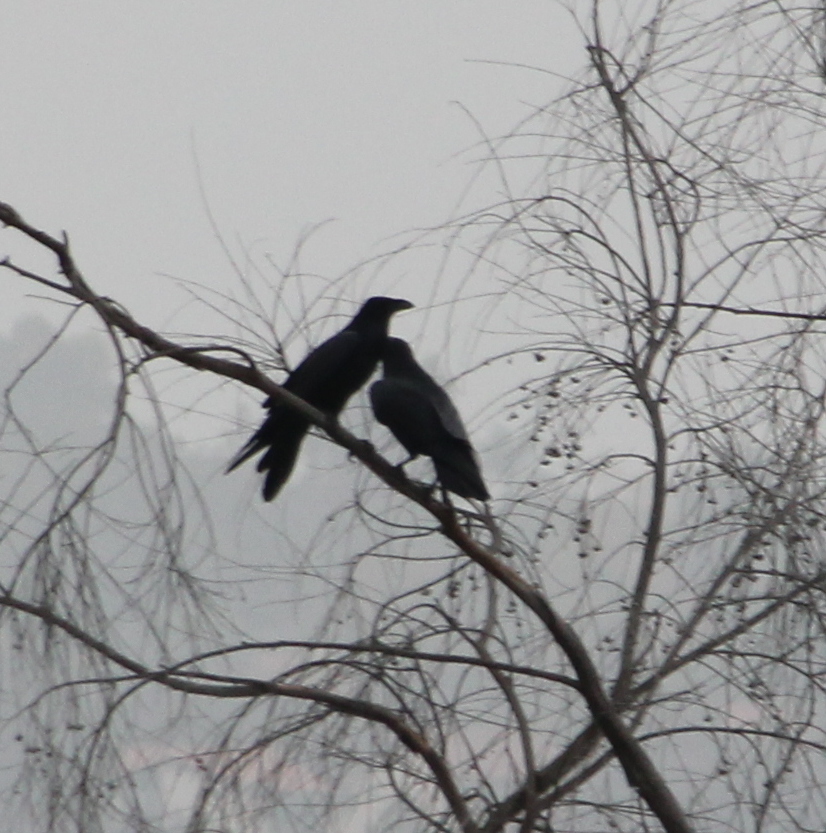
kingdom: Animalia
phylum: Chordata
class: Aves
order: Passeriformes
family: Corvidae
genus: Corvus
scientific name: Corvus corax
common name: Common raven
